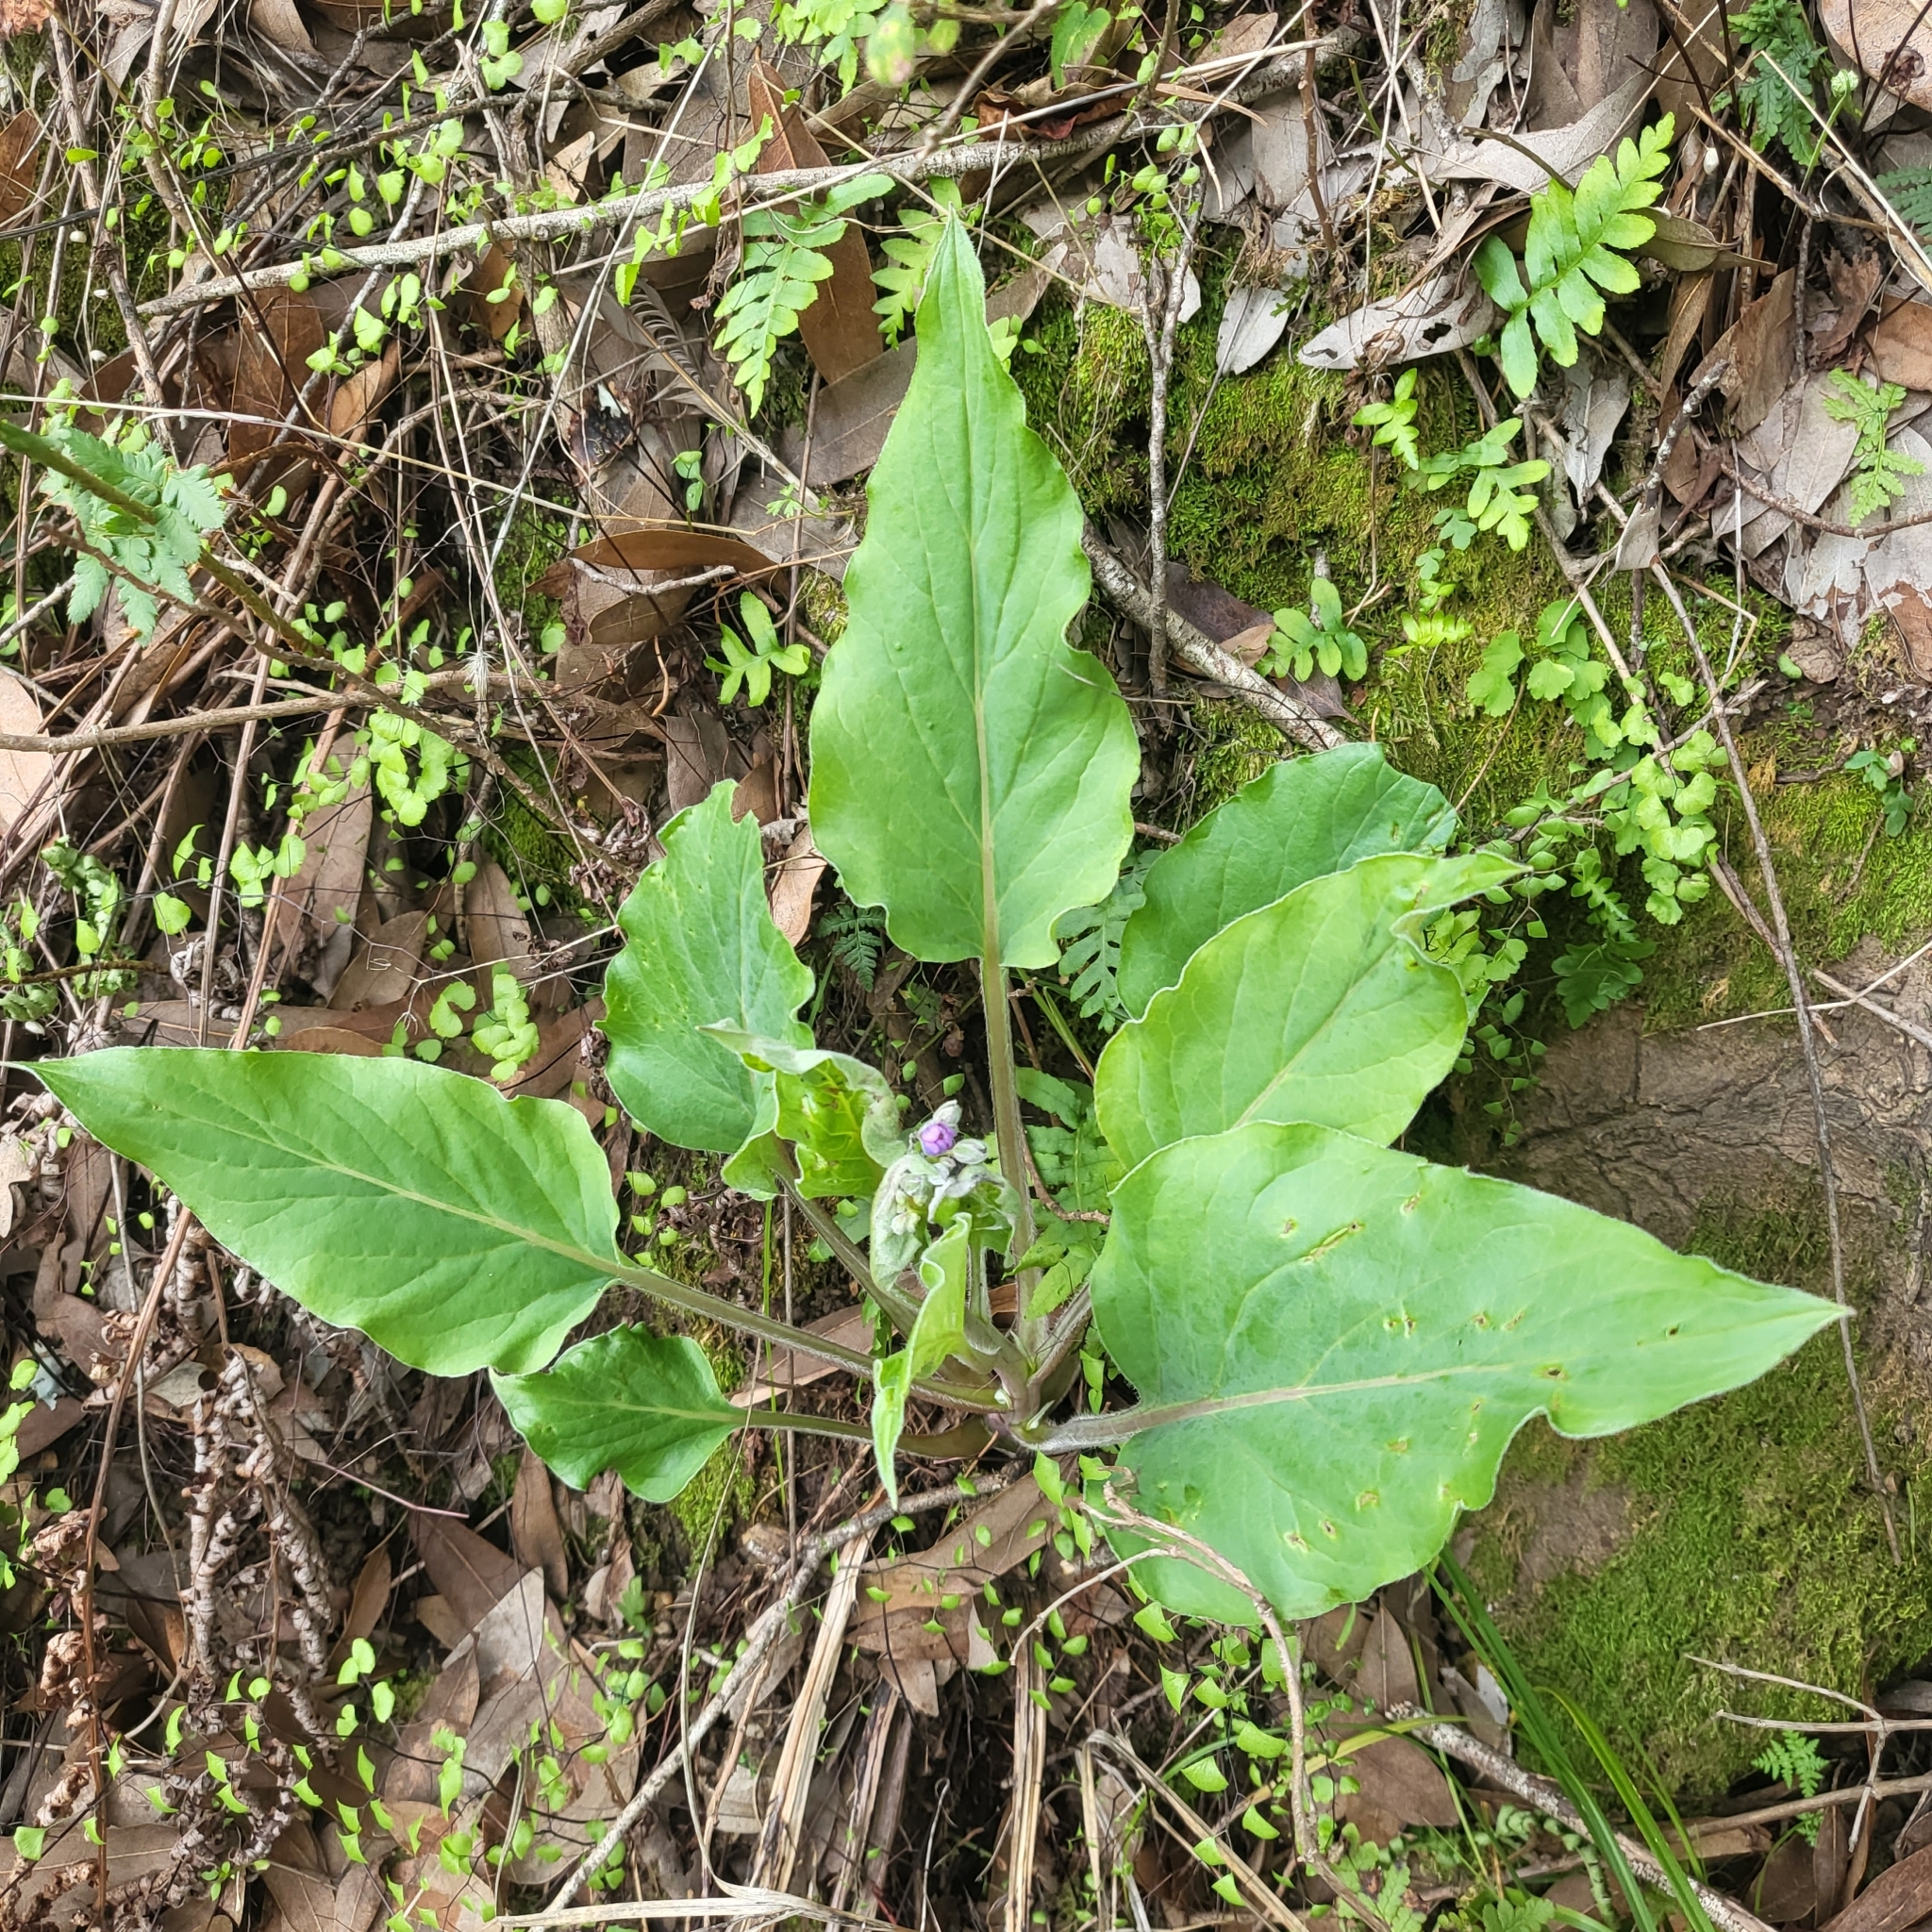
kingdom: Plantae
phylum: Tracheophyta
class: Magnoliopsida
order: Boraginales
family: Boraginaceae
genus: Adelinia
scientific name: Adelinia grande
